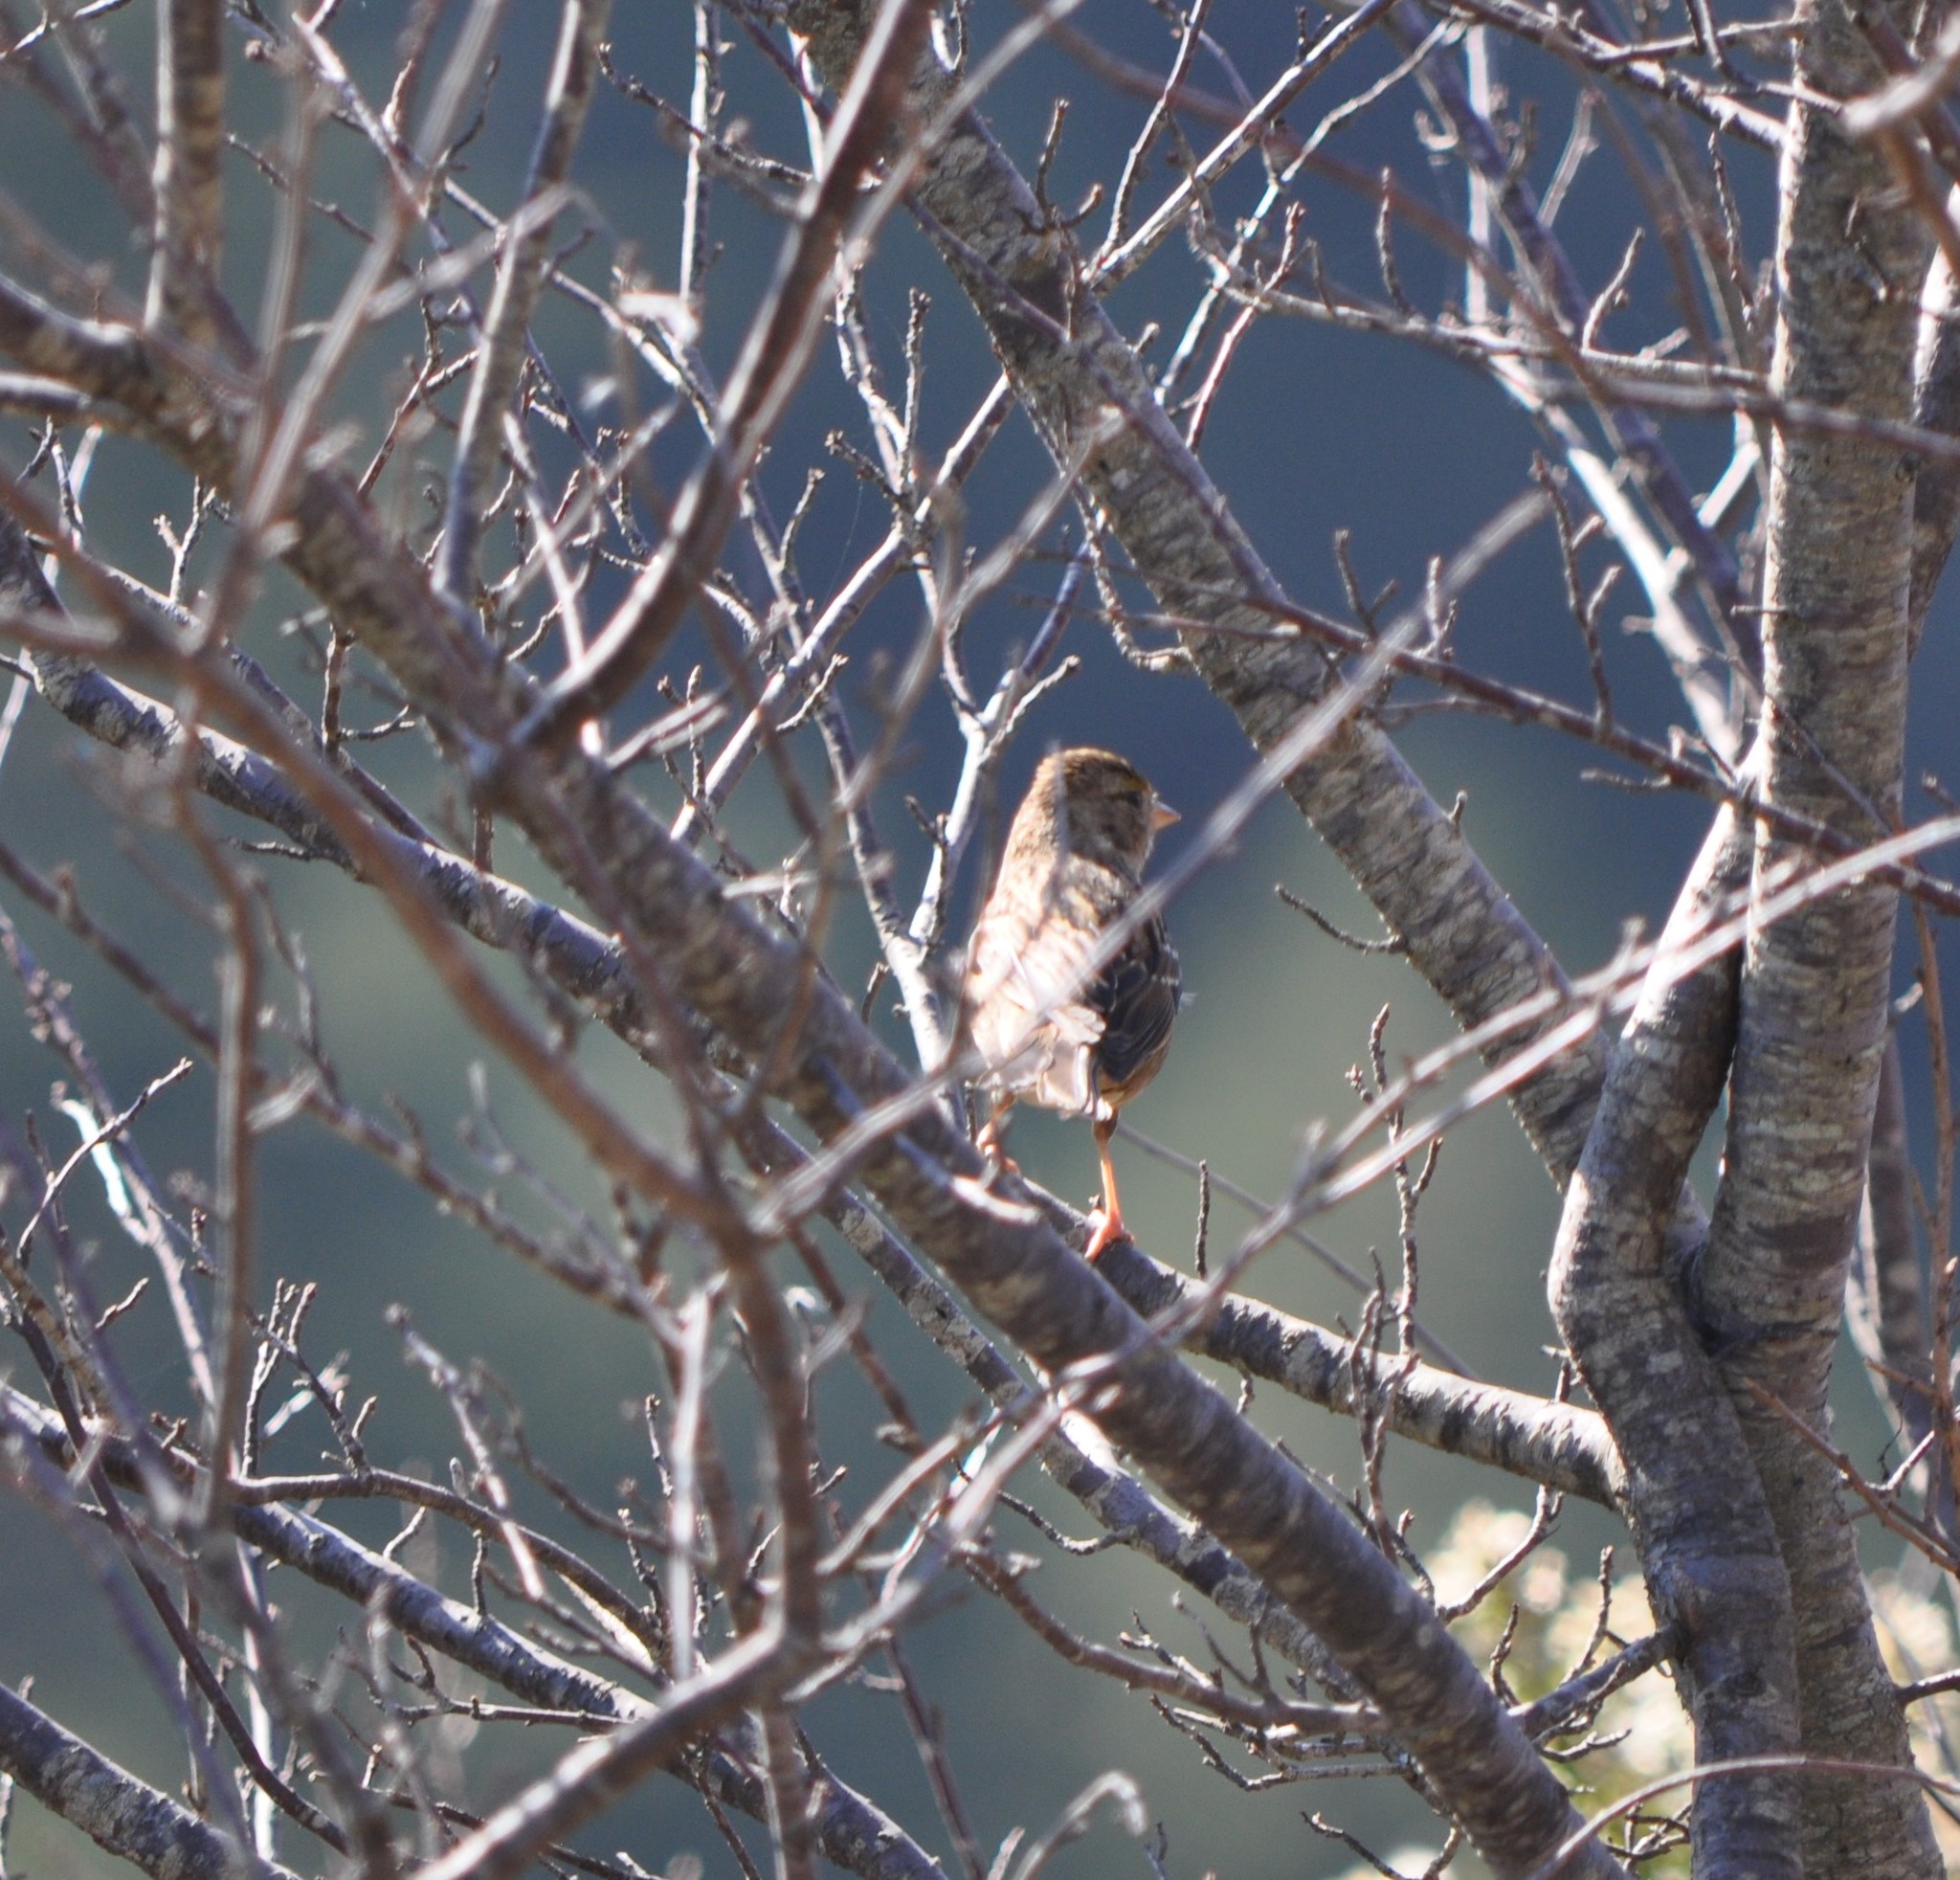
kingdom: Animalia
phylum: Chordata
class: Aves
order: Passeriformes
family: Passerellidae
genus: Zonotrichia
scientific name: Zonotrichia atricapilla
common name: Golden-crowned sparrow
